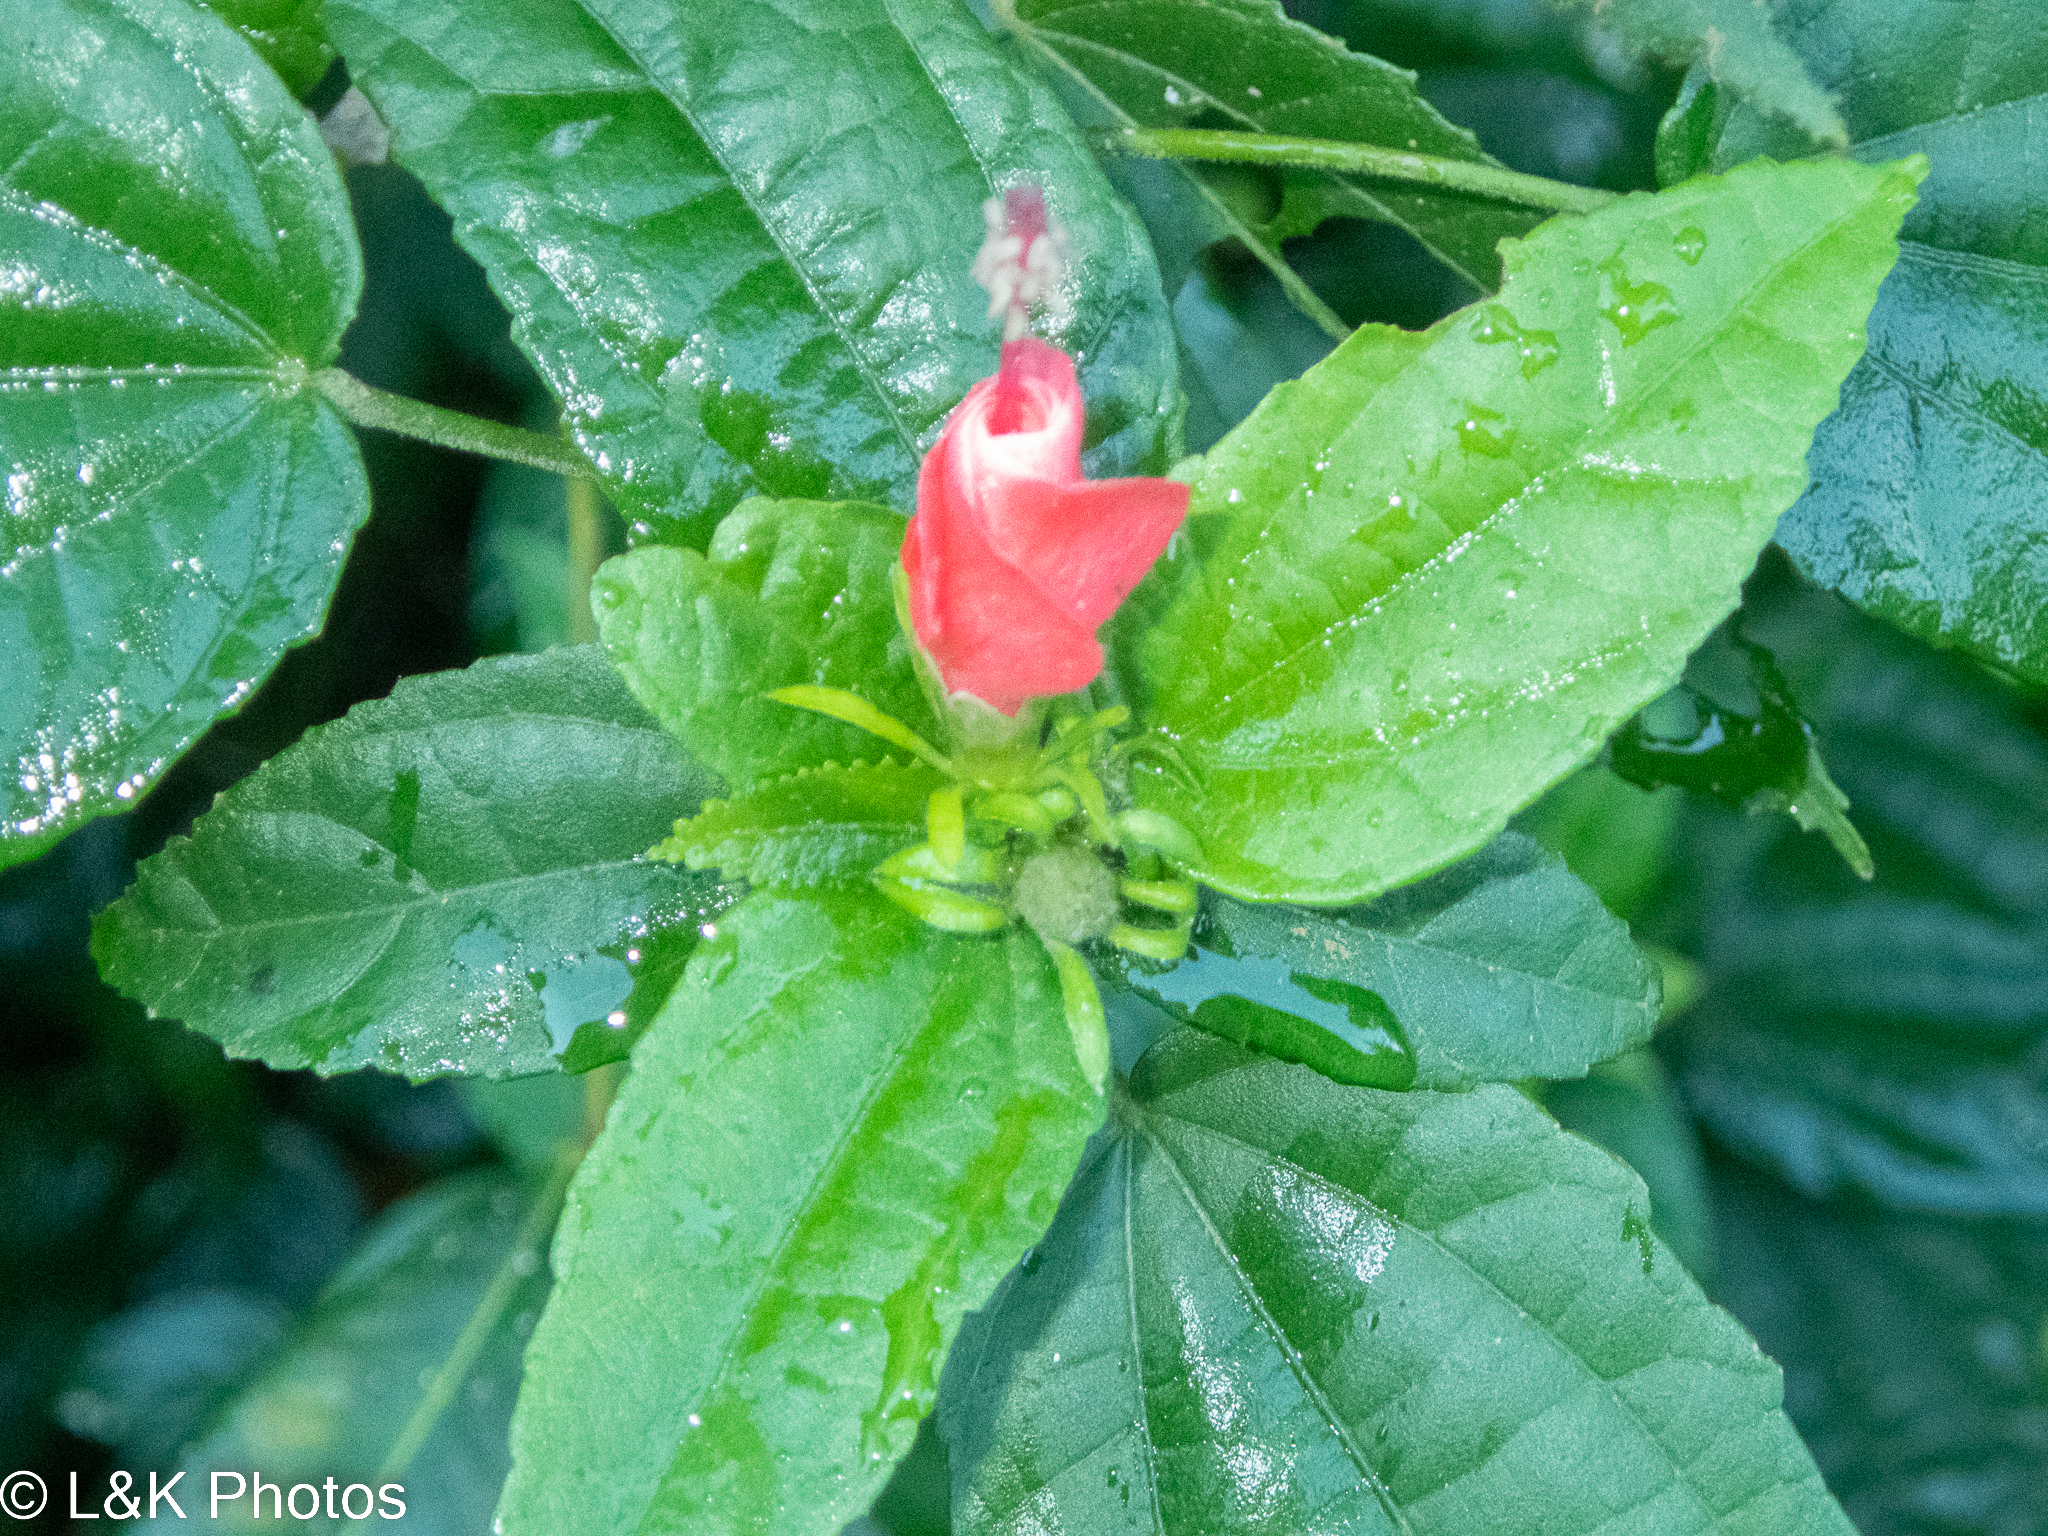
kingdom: Plantae
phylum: Tracheophyta
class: Magnoliopsida
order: Malvales
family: Malvaceae
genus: Malvaviscus
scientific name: Malvaviscus arboreus
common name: Wax mallow
